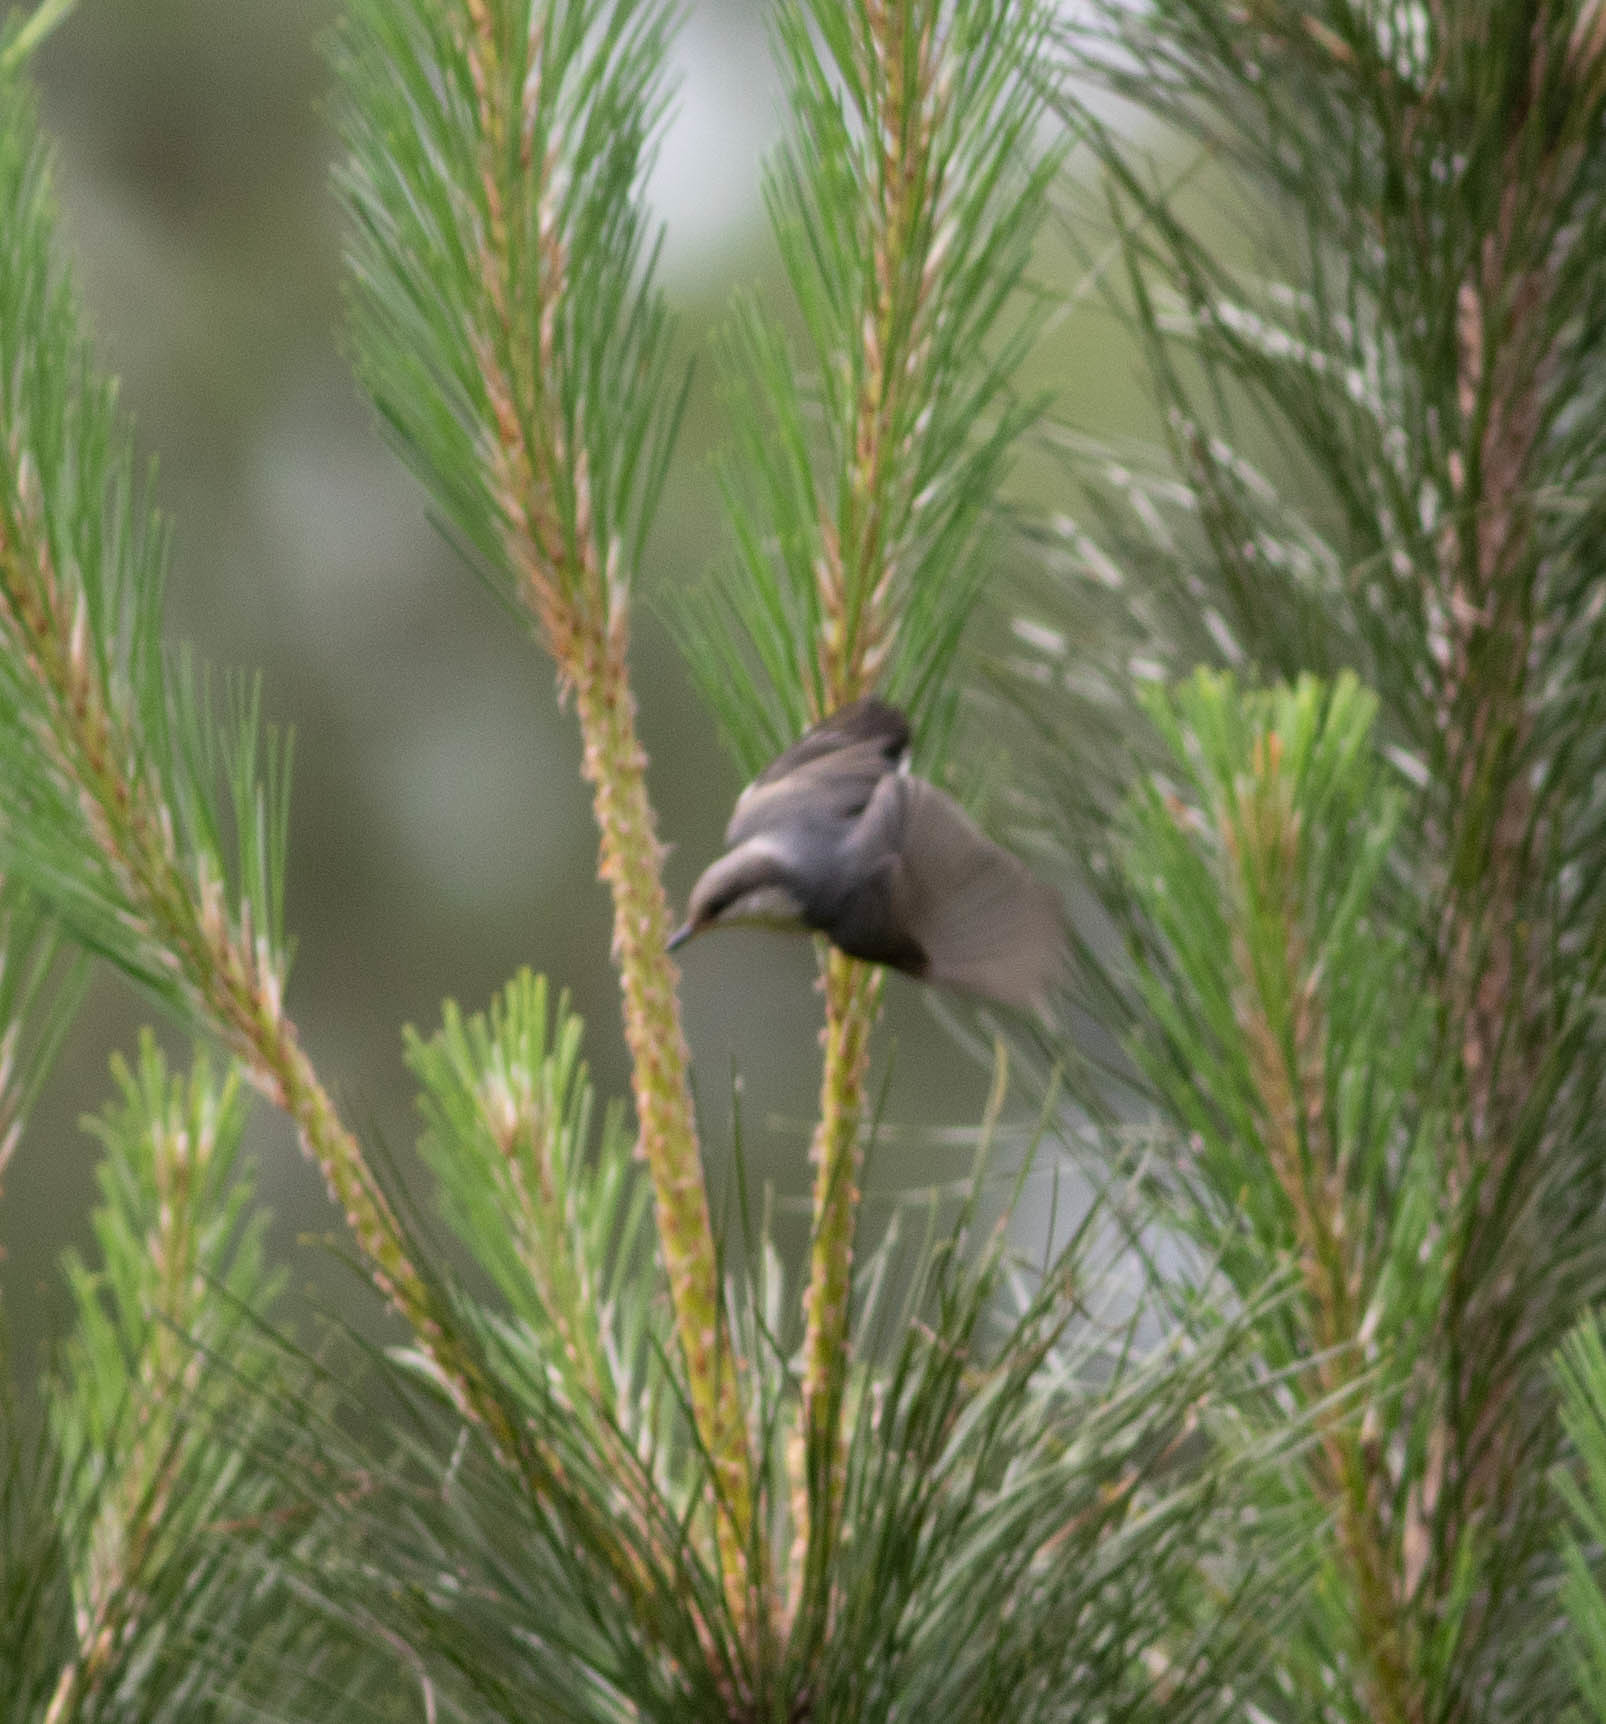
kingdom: Animalia
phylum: Chordata
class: Aves
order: Passeriformes
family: Sittidae
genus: Sitta
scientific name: Sitta pusilla
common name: Brown-headed nuthatch
